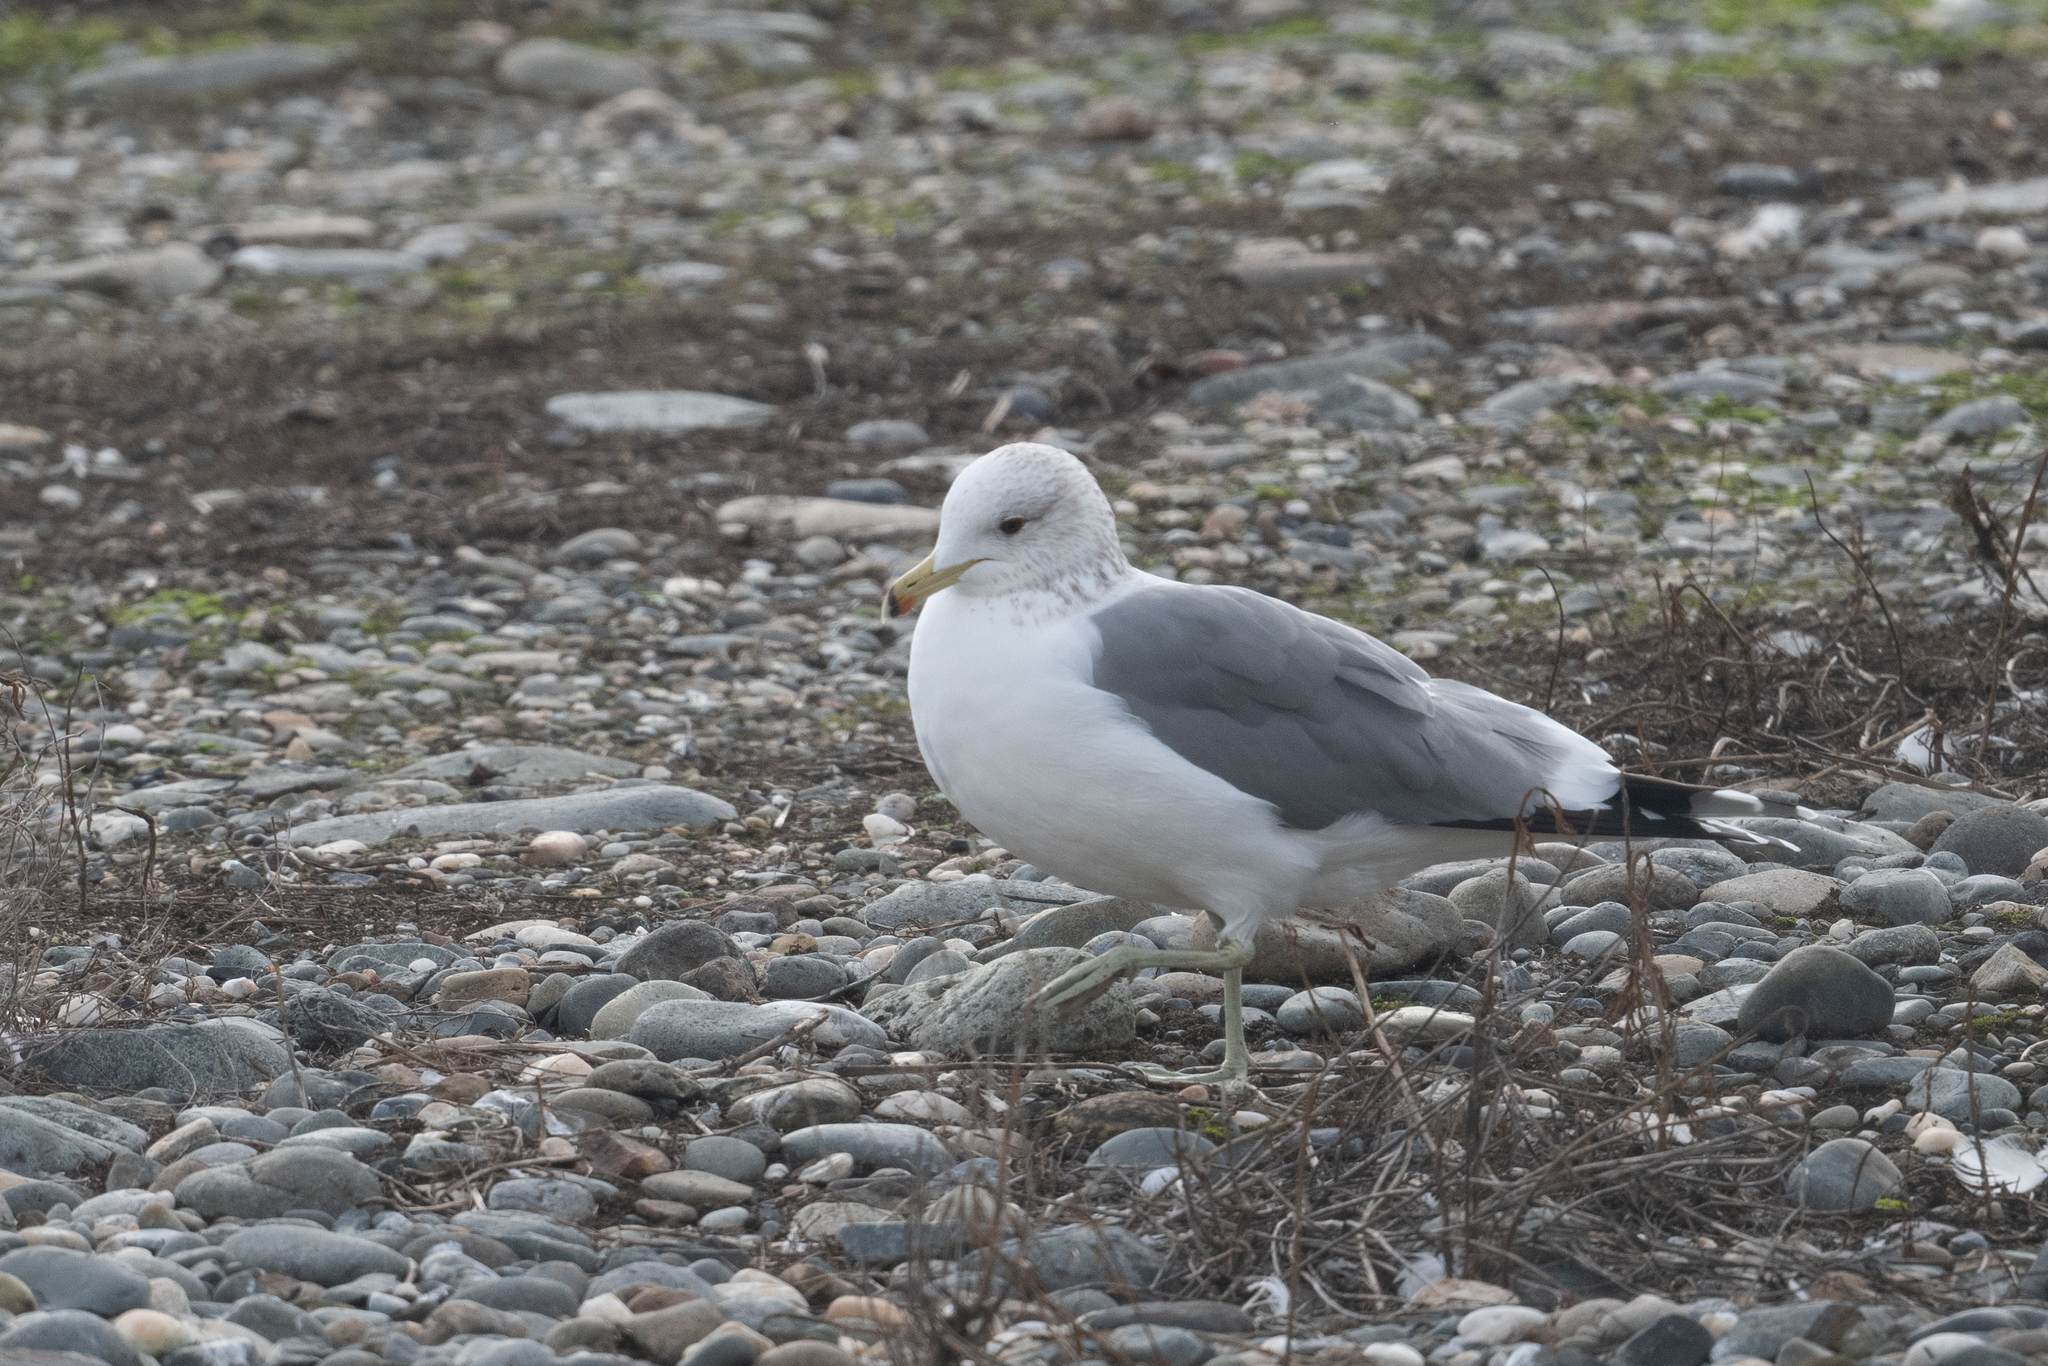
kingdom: Animalia
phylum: Chordata
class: Aves
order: Charadriiformes
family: Laridae
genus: Larus
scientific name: Larus californicus
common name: California gull
